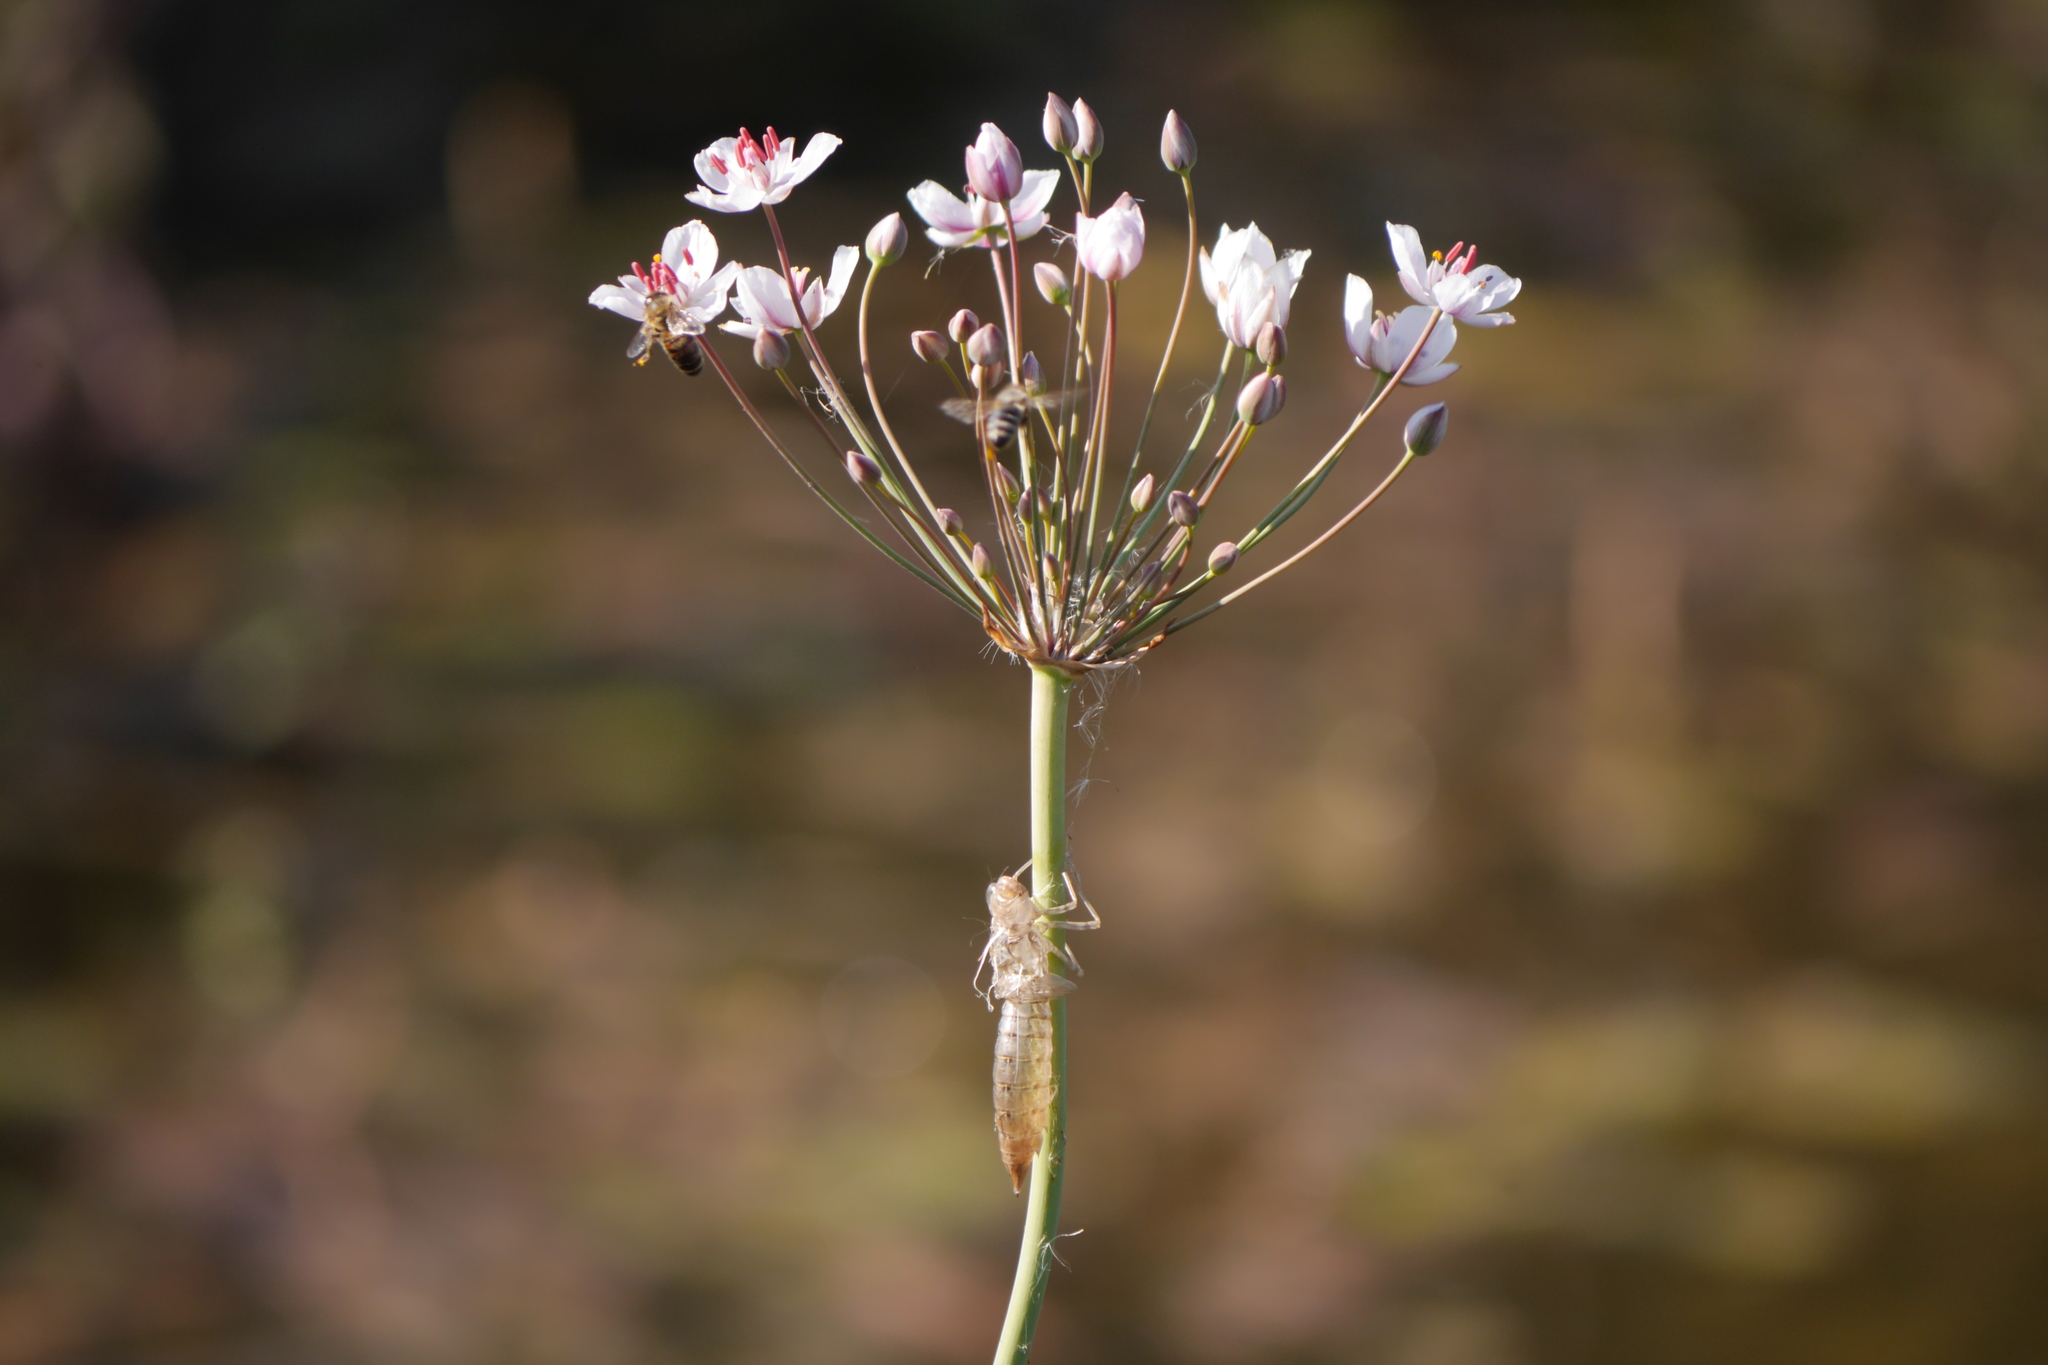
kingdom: Plantae
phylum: Tracheophyta
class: Liliopsida
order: Alismatales
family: Butomaceae
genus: Butomus
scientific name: Butomus umbellatus
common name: Flowering-rush
